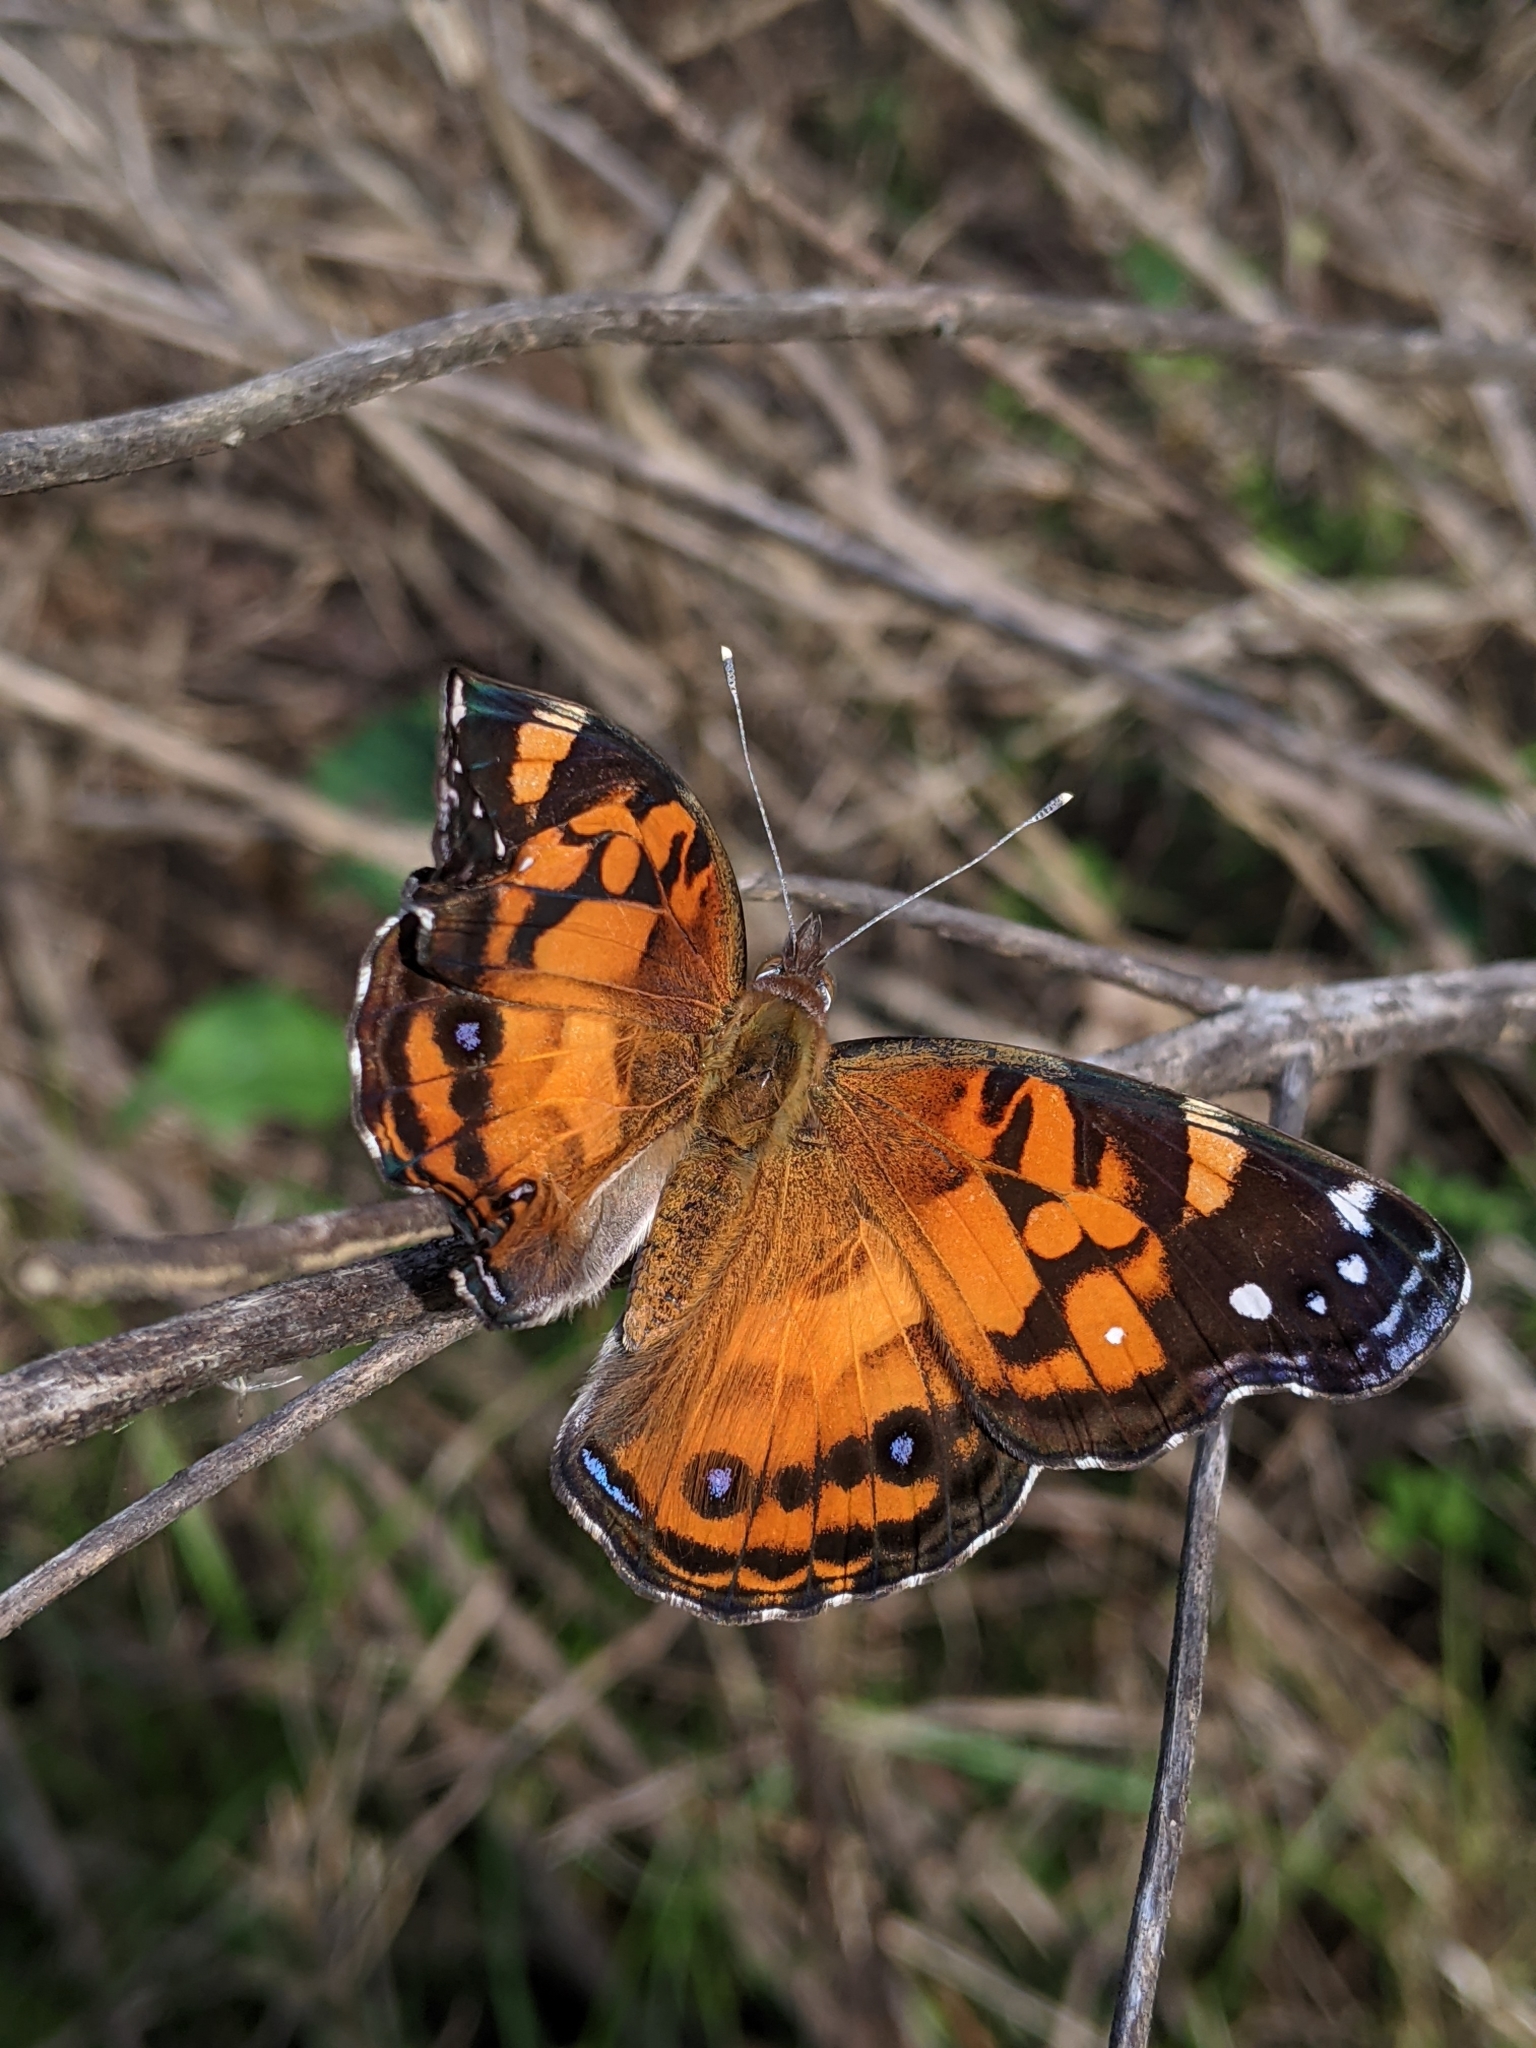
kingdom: Animalia
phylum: Arthropoda
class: Insecta
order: Lepidoptera
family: Nymphalidae
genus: Vanessa
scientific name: Vanessa virginiensis
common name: American lady
